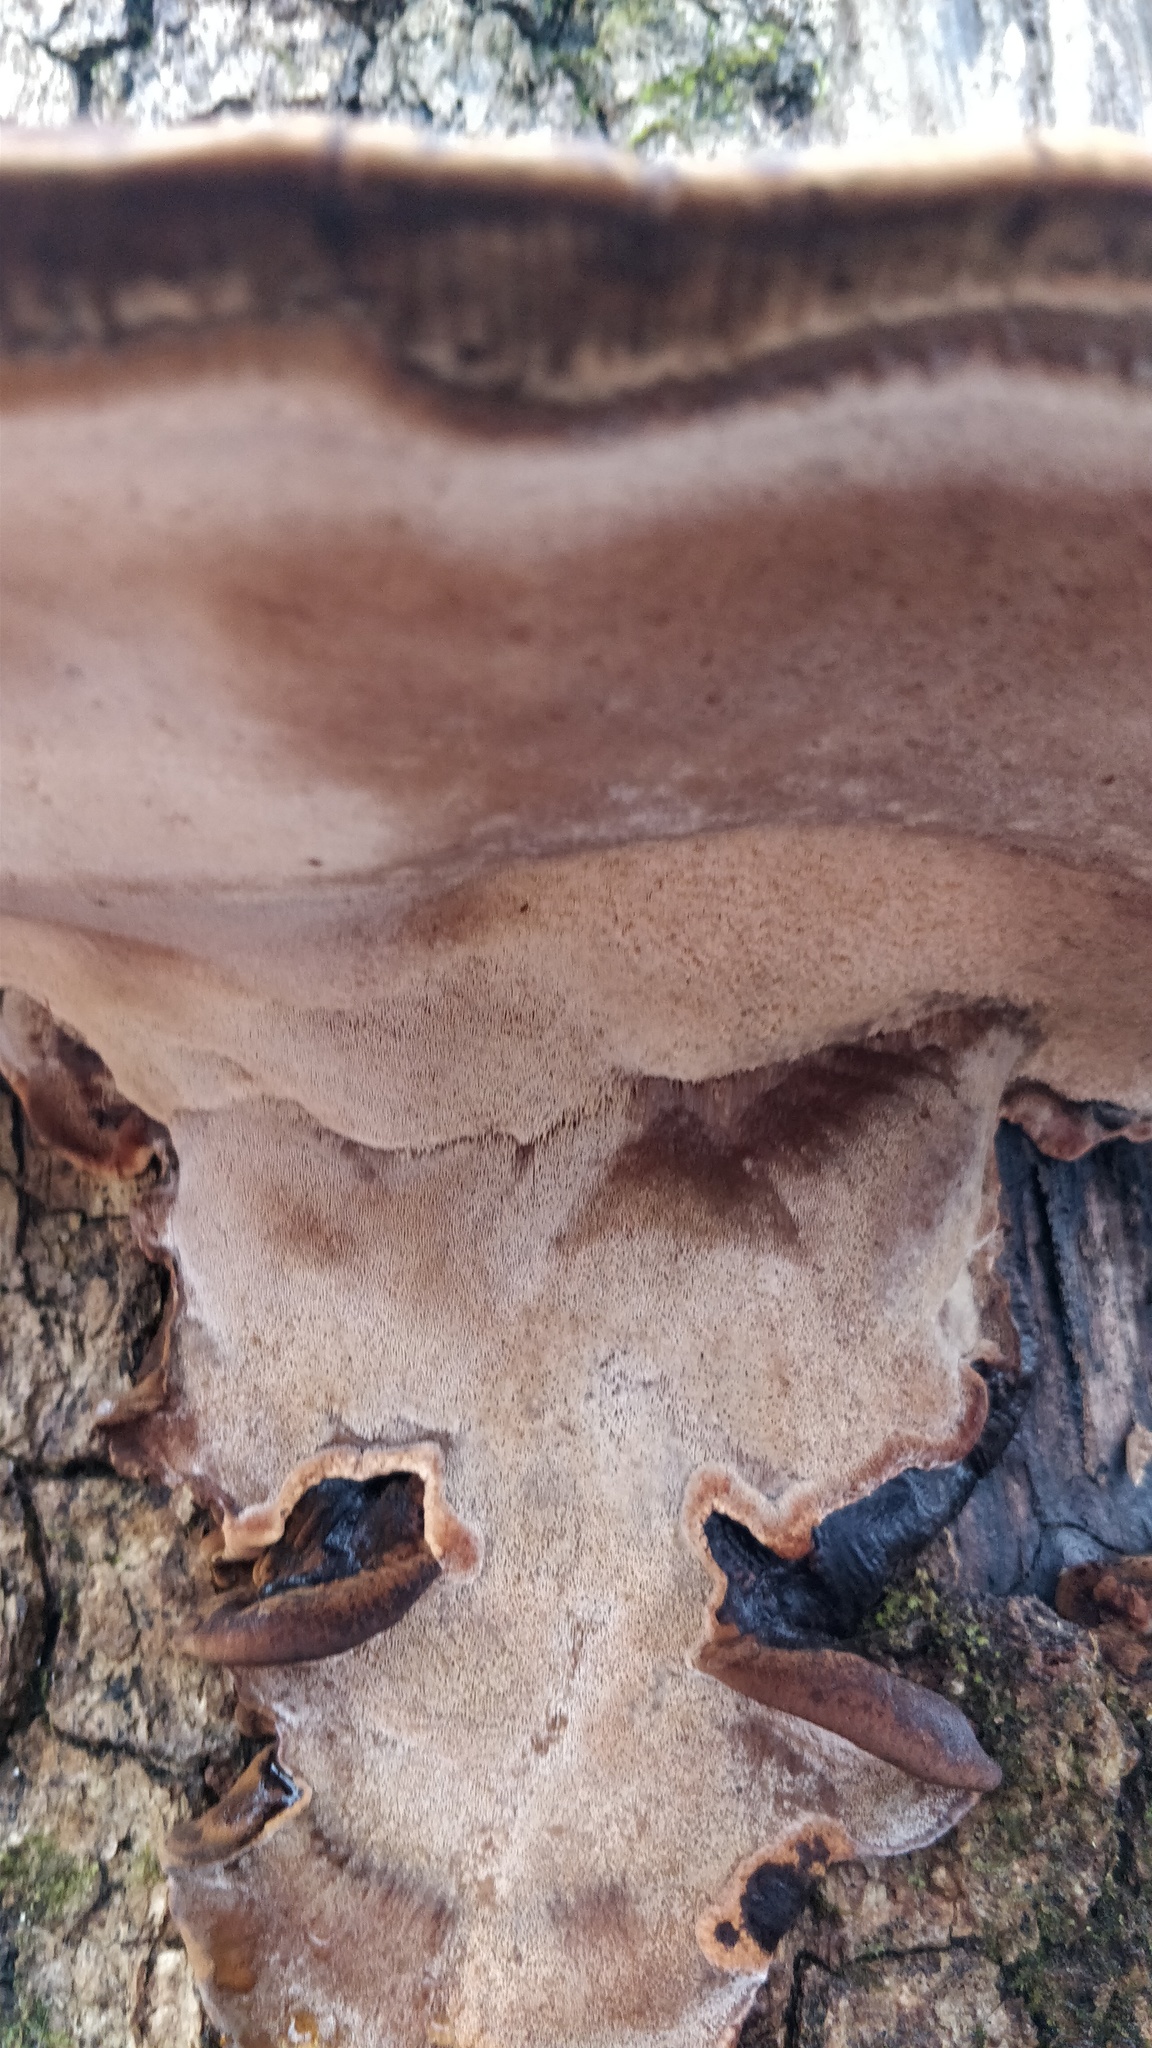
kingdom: Fungi
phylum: Basidiomycota
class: Agaricomycetes
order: Polyporales
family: Ischnodermataceae
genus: Ischnoderma
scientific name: Ischnoderma resinosum
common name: Resinous polypore
